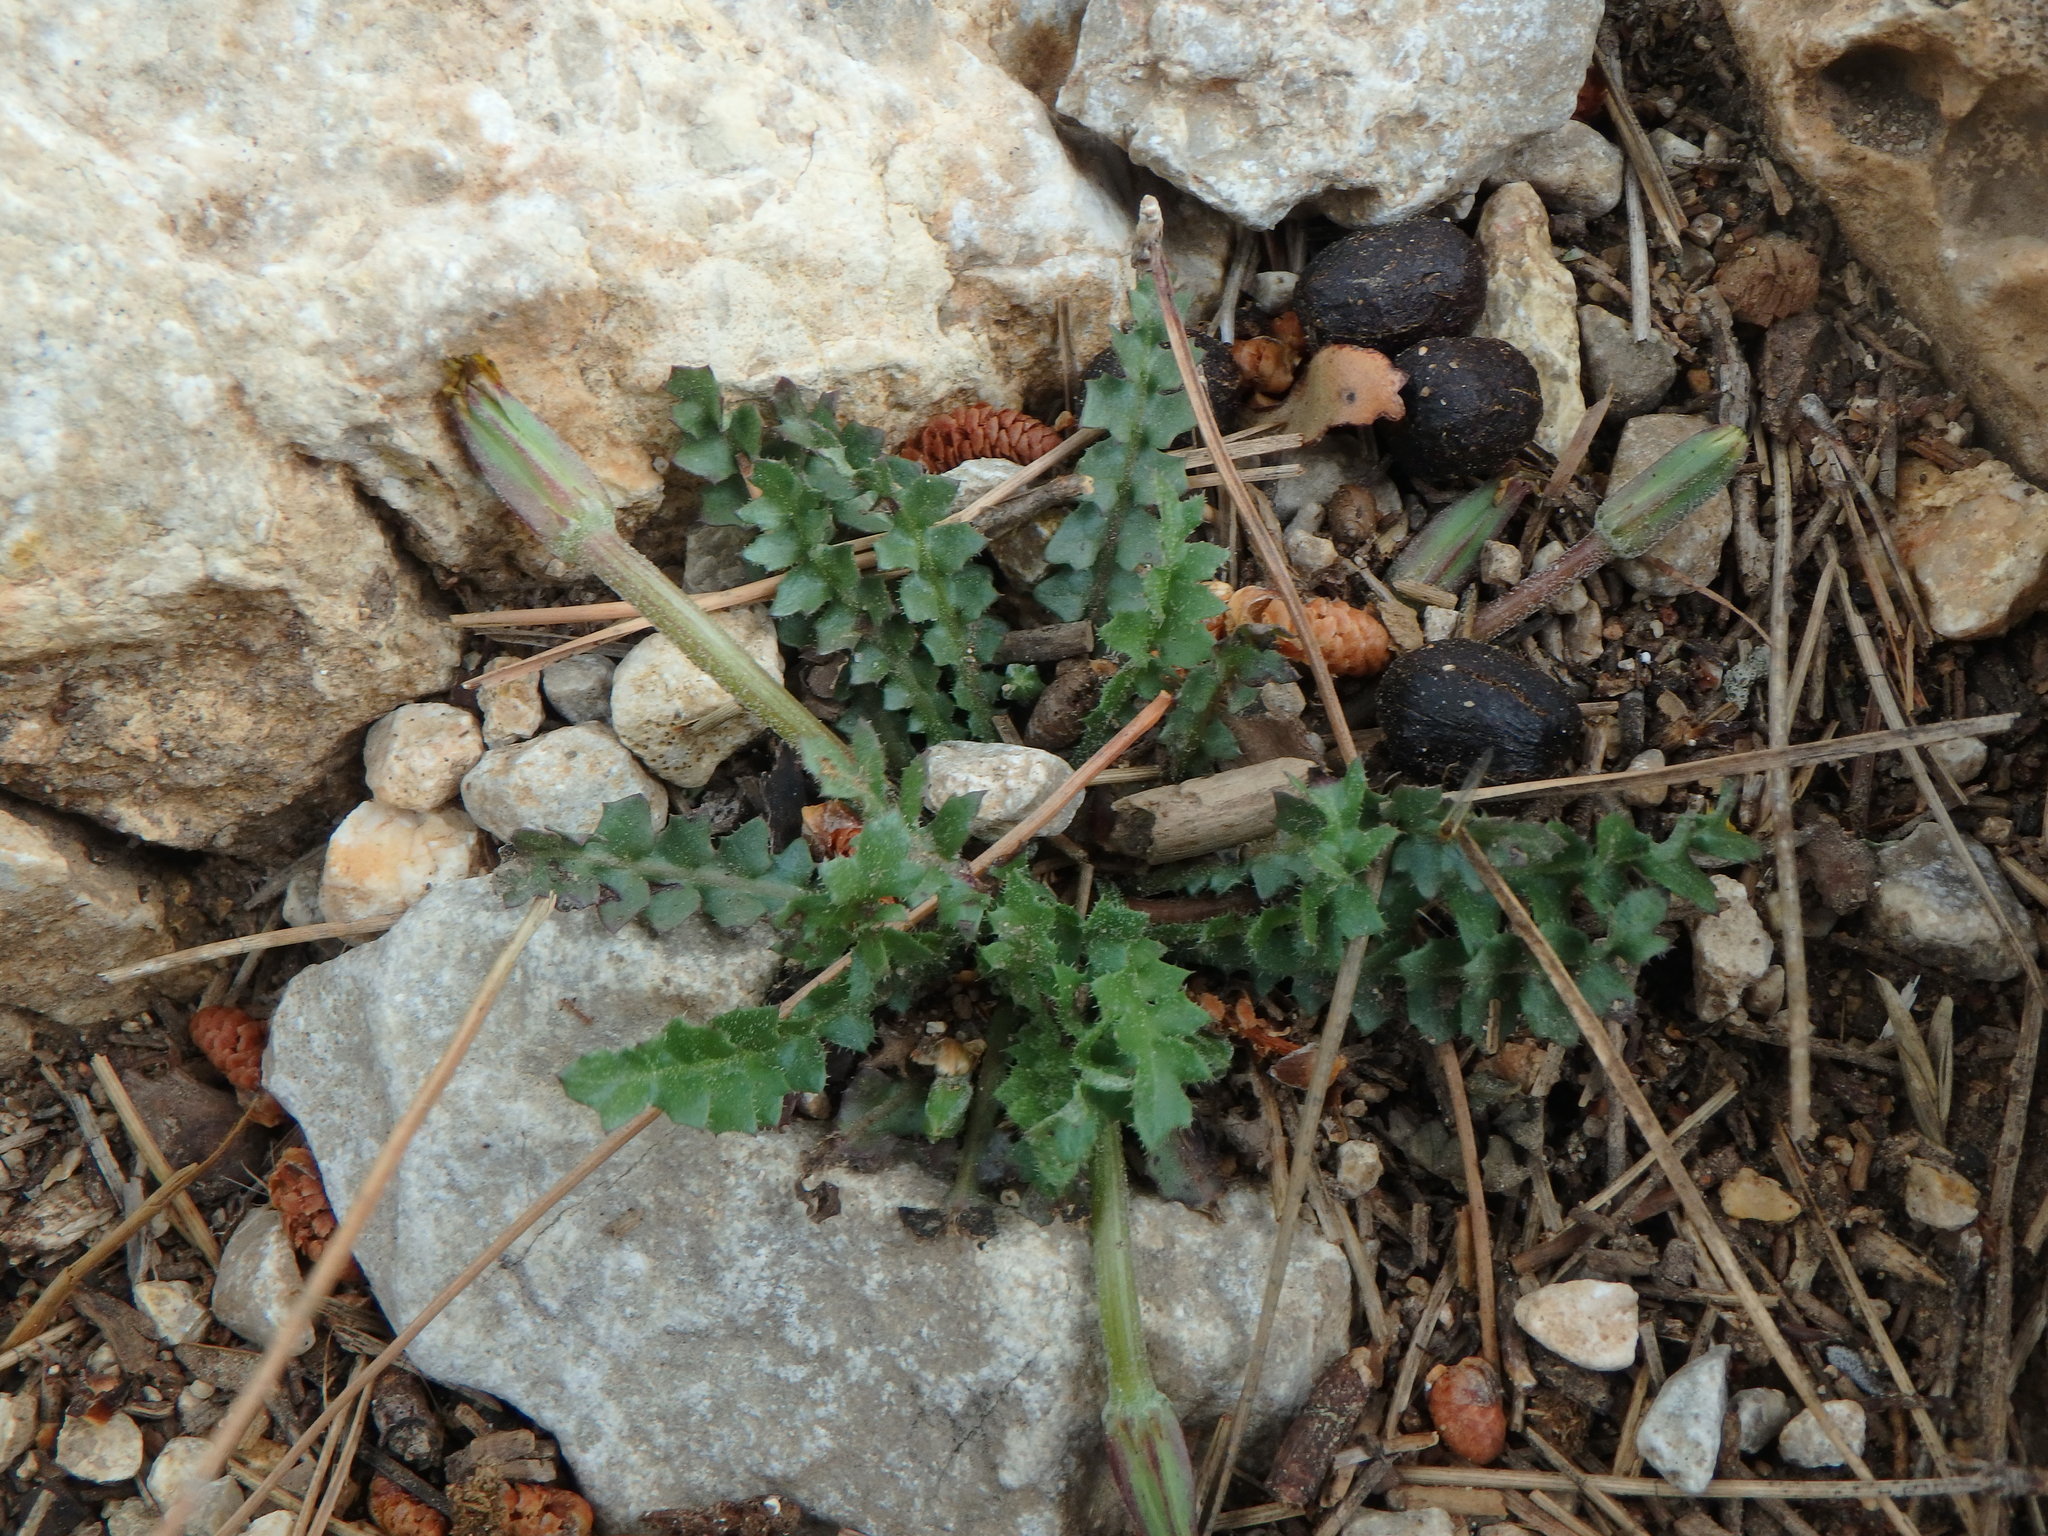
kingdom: Plantae
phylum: Tracheophyta
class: Magnoliopsida
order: Asterales
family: Asteraceae
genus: Hyoseris
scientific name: Hyoseris scabra
